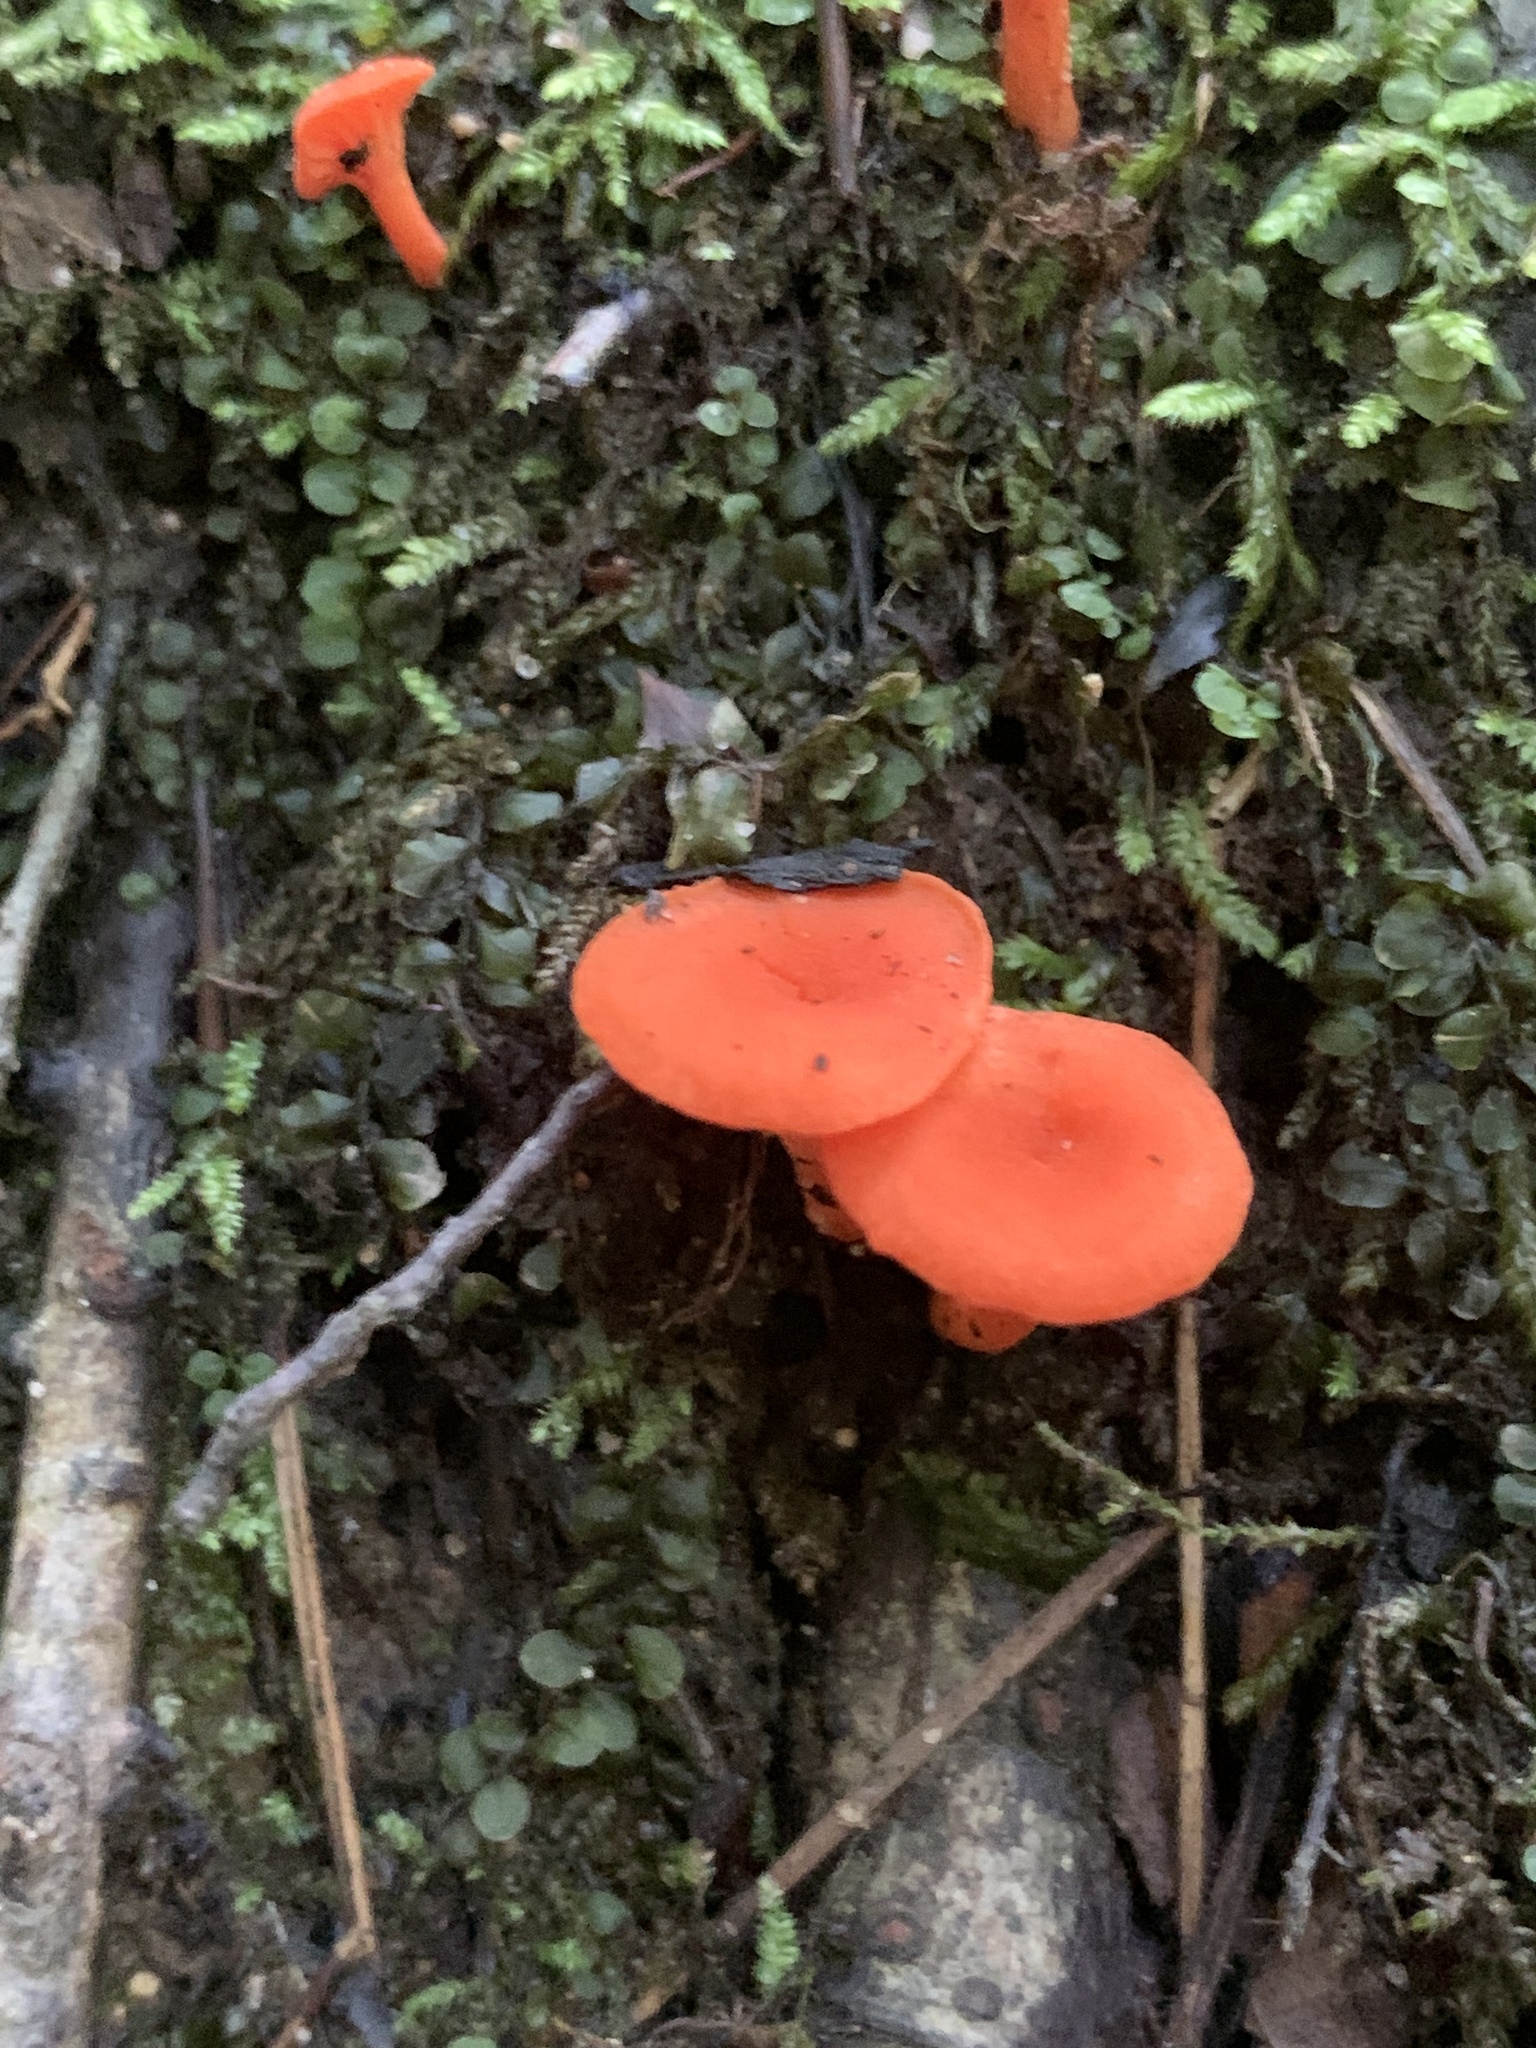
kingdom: Fungi
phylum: Basidiomycota
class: Agaricomycetes
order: Cantharellales
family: Hydnaceae
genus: Cantharellus
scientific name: Cantharellus cinnabarinus
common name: Cinnabar chanterelle
